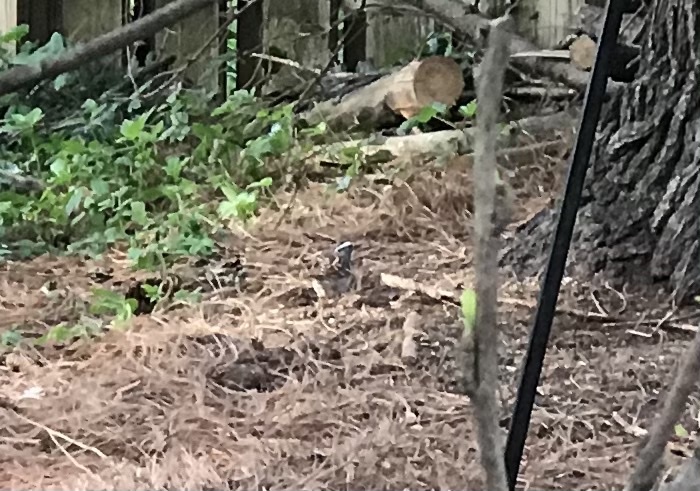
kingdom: Animalia
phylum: Chordata
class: Aves
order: Passeriformes
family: Passerellidae
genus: Zonotrichia
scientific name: Zonotrichia albicollis
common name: White-throated sparrow
